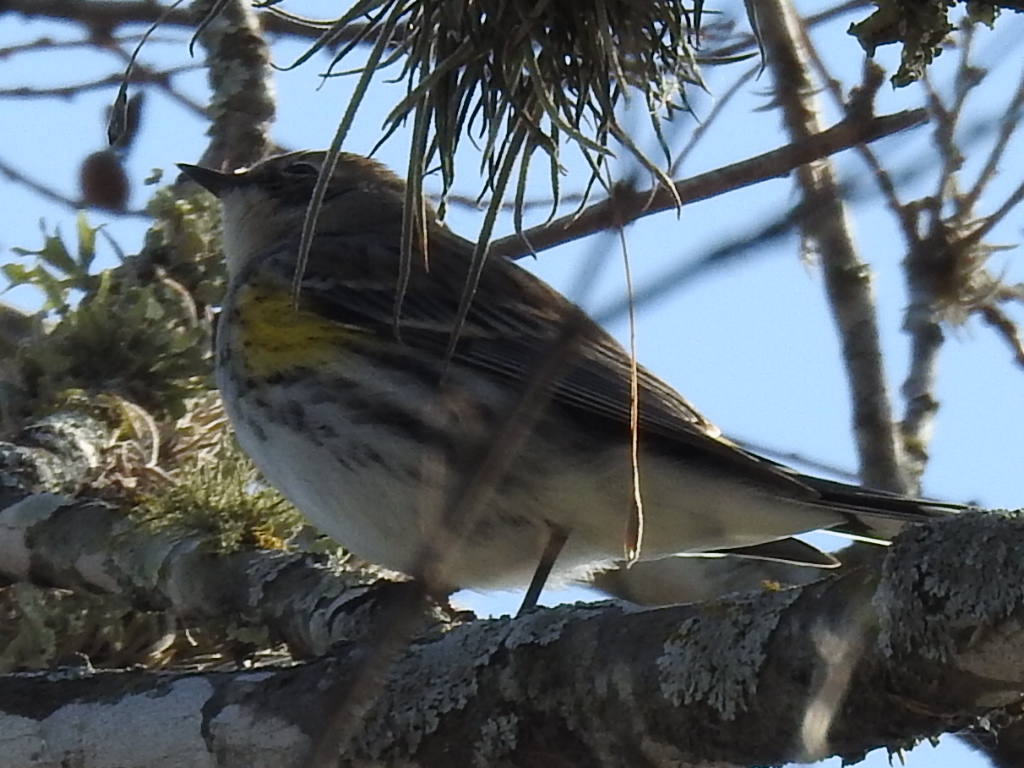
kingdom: Animalia
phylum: Chordata
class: Aves
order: Passeriformes
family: Parulidae
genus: Setophaga
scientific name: Setophaga coronata
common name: Myrtle warbler
